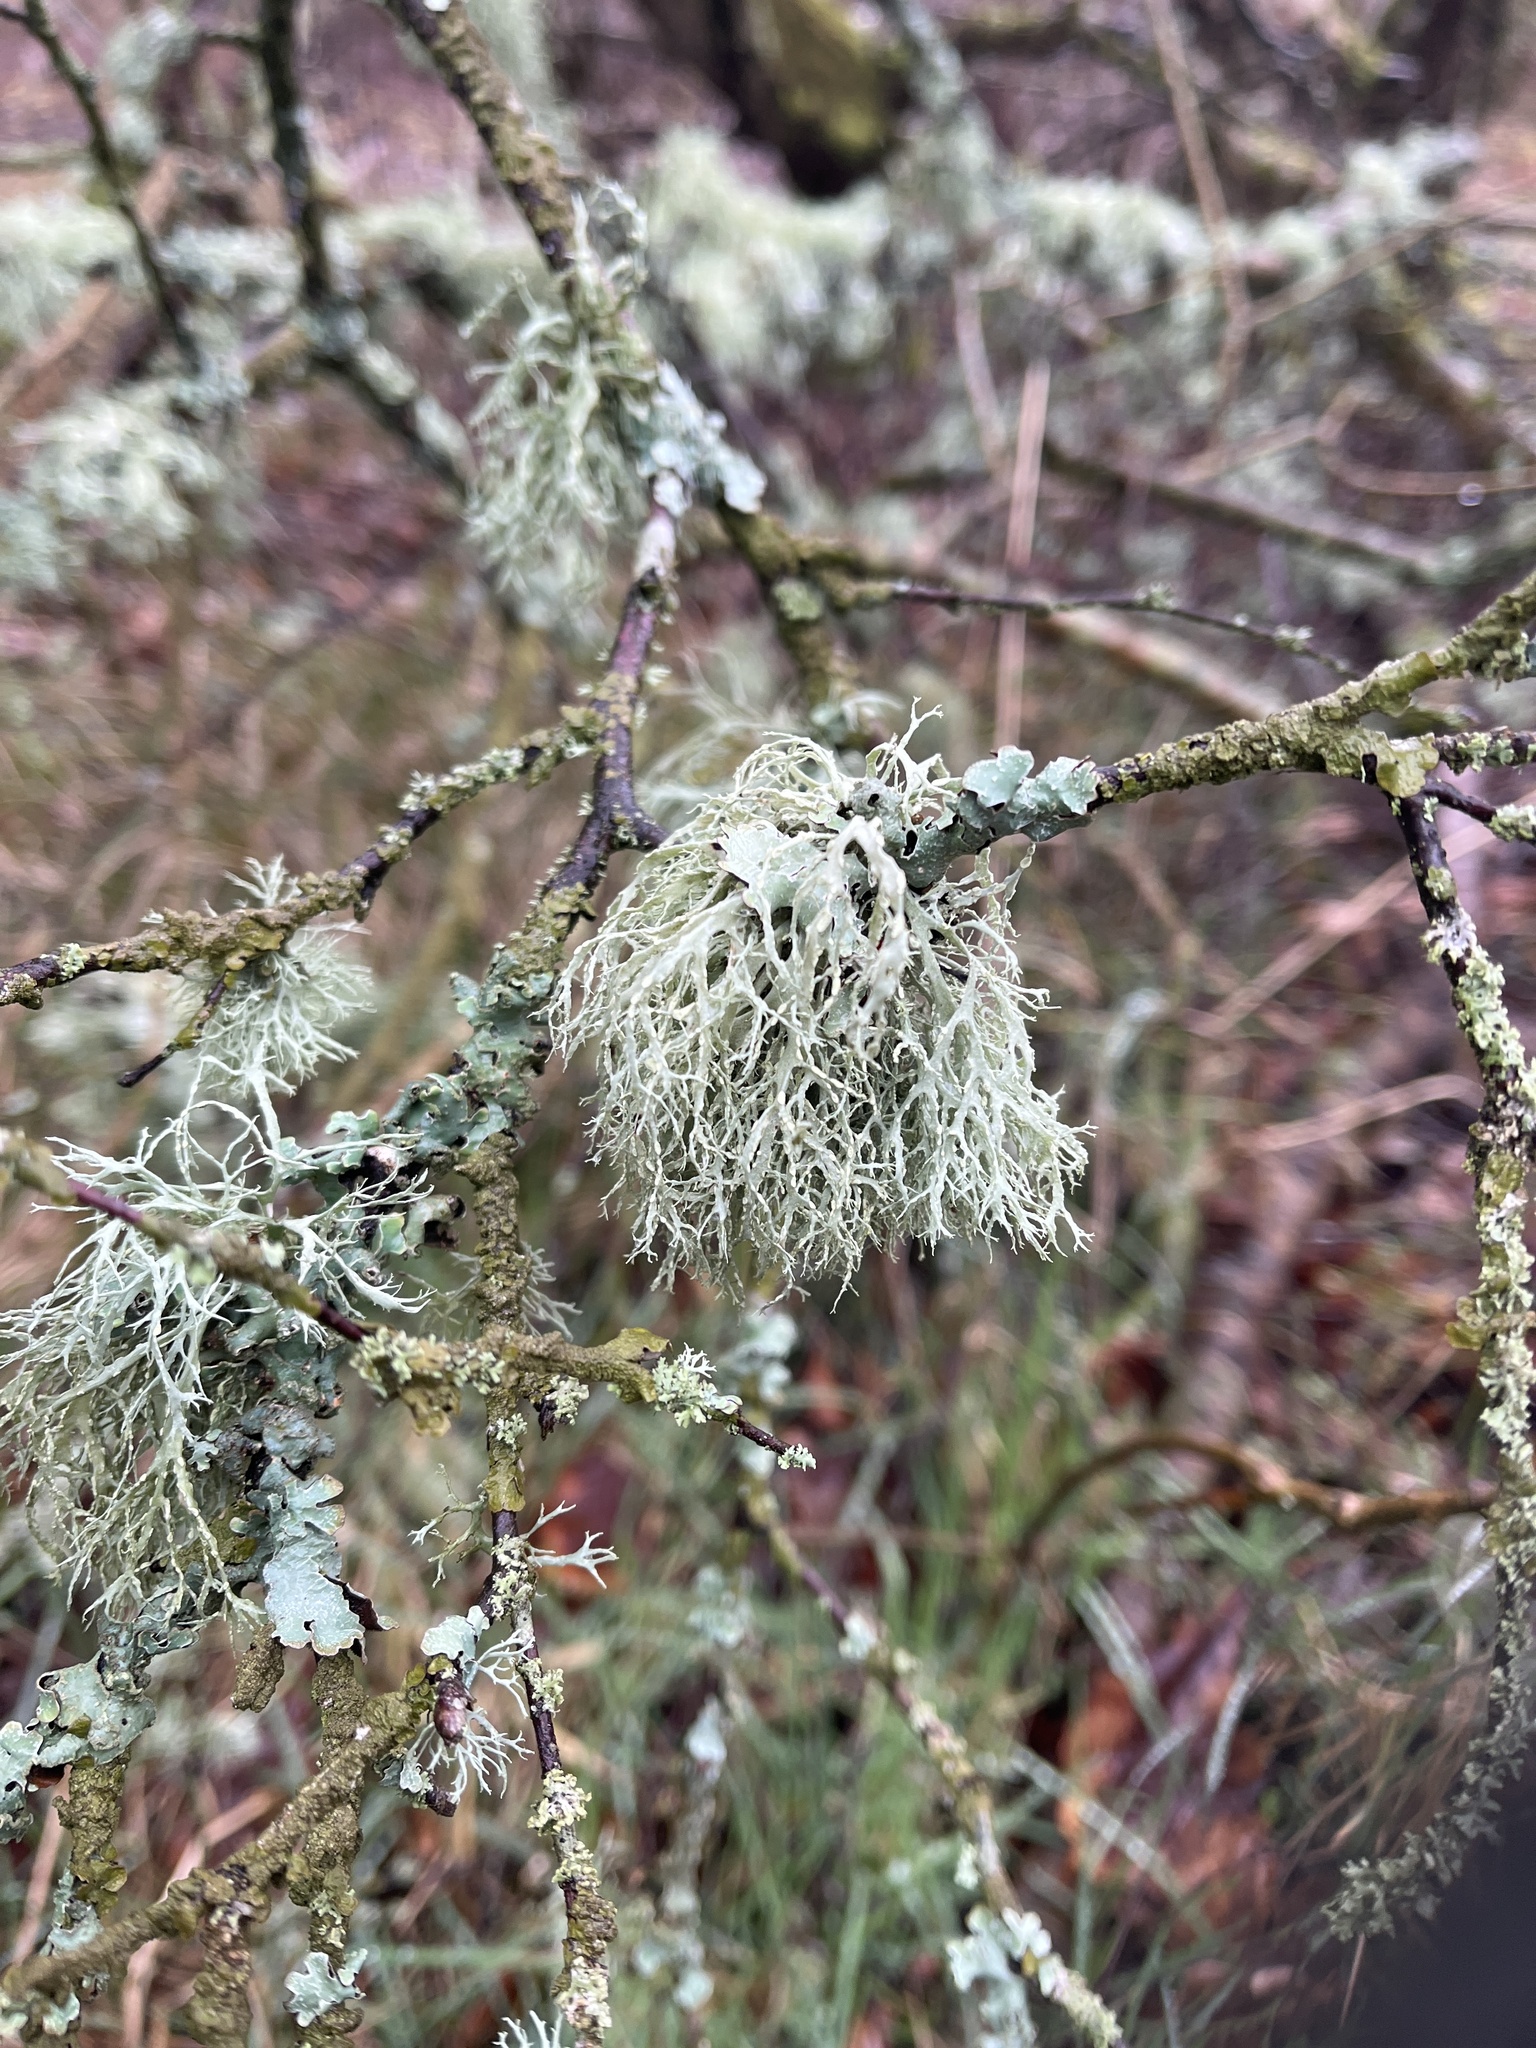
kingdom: Fungi
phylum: Ascomycota
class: Lecanoromycetes
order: Lecanorales
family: Ramalinaceae
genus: Ramalina
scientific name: Ramalina farinacea
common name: Farinose cartilage lichen
